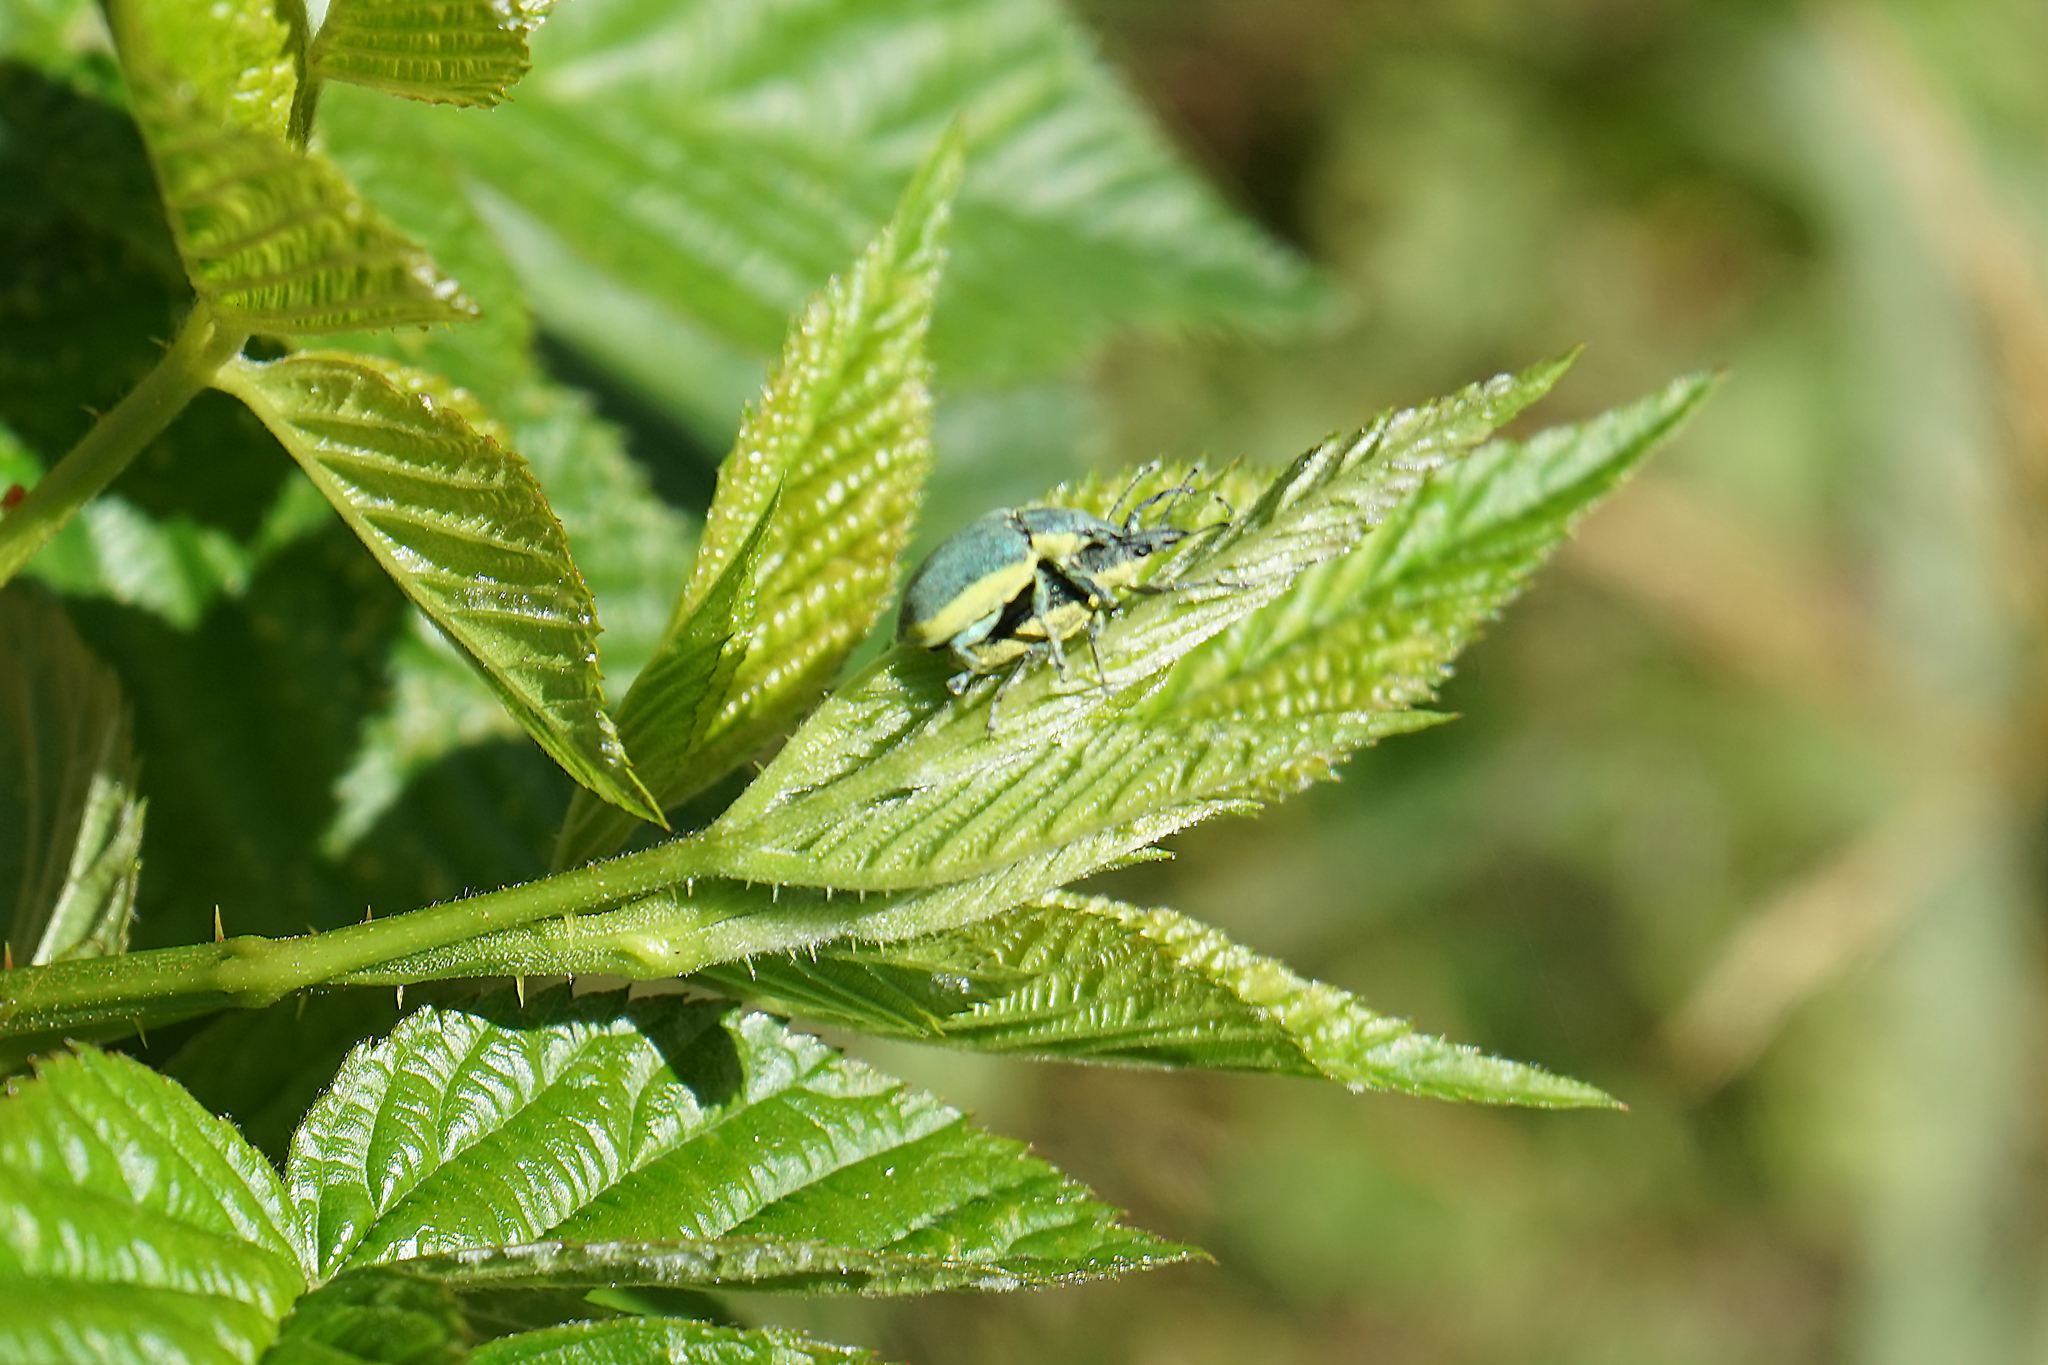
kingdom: Animalia
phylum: Arthropoda
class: Insecta
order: Coleoptera
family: Curculionidae
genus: Chlorophanus
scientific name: Chlorophanus viridis
